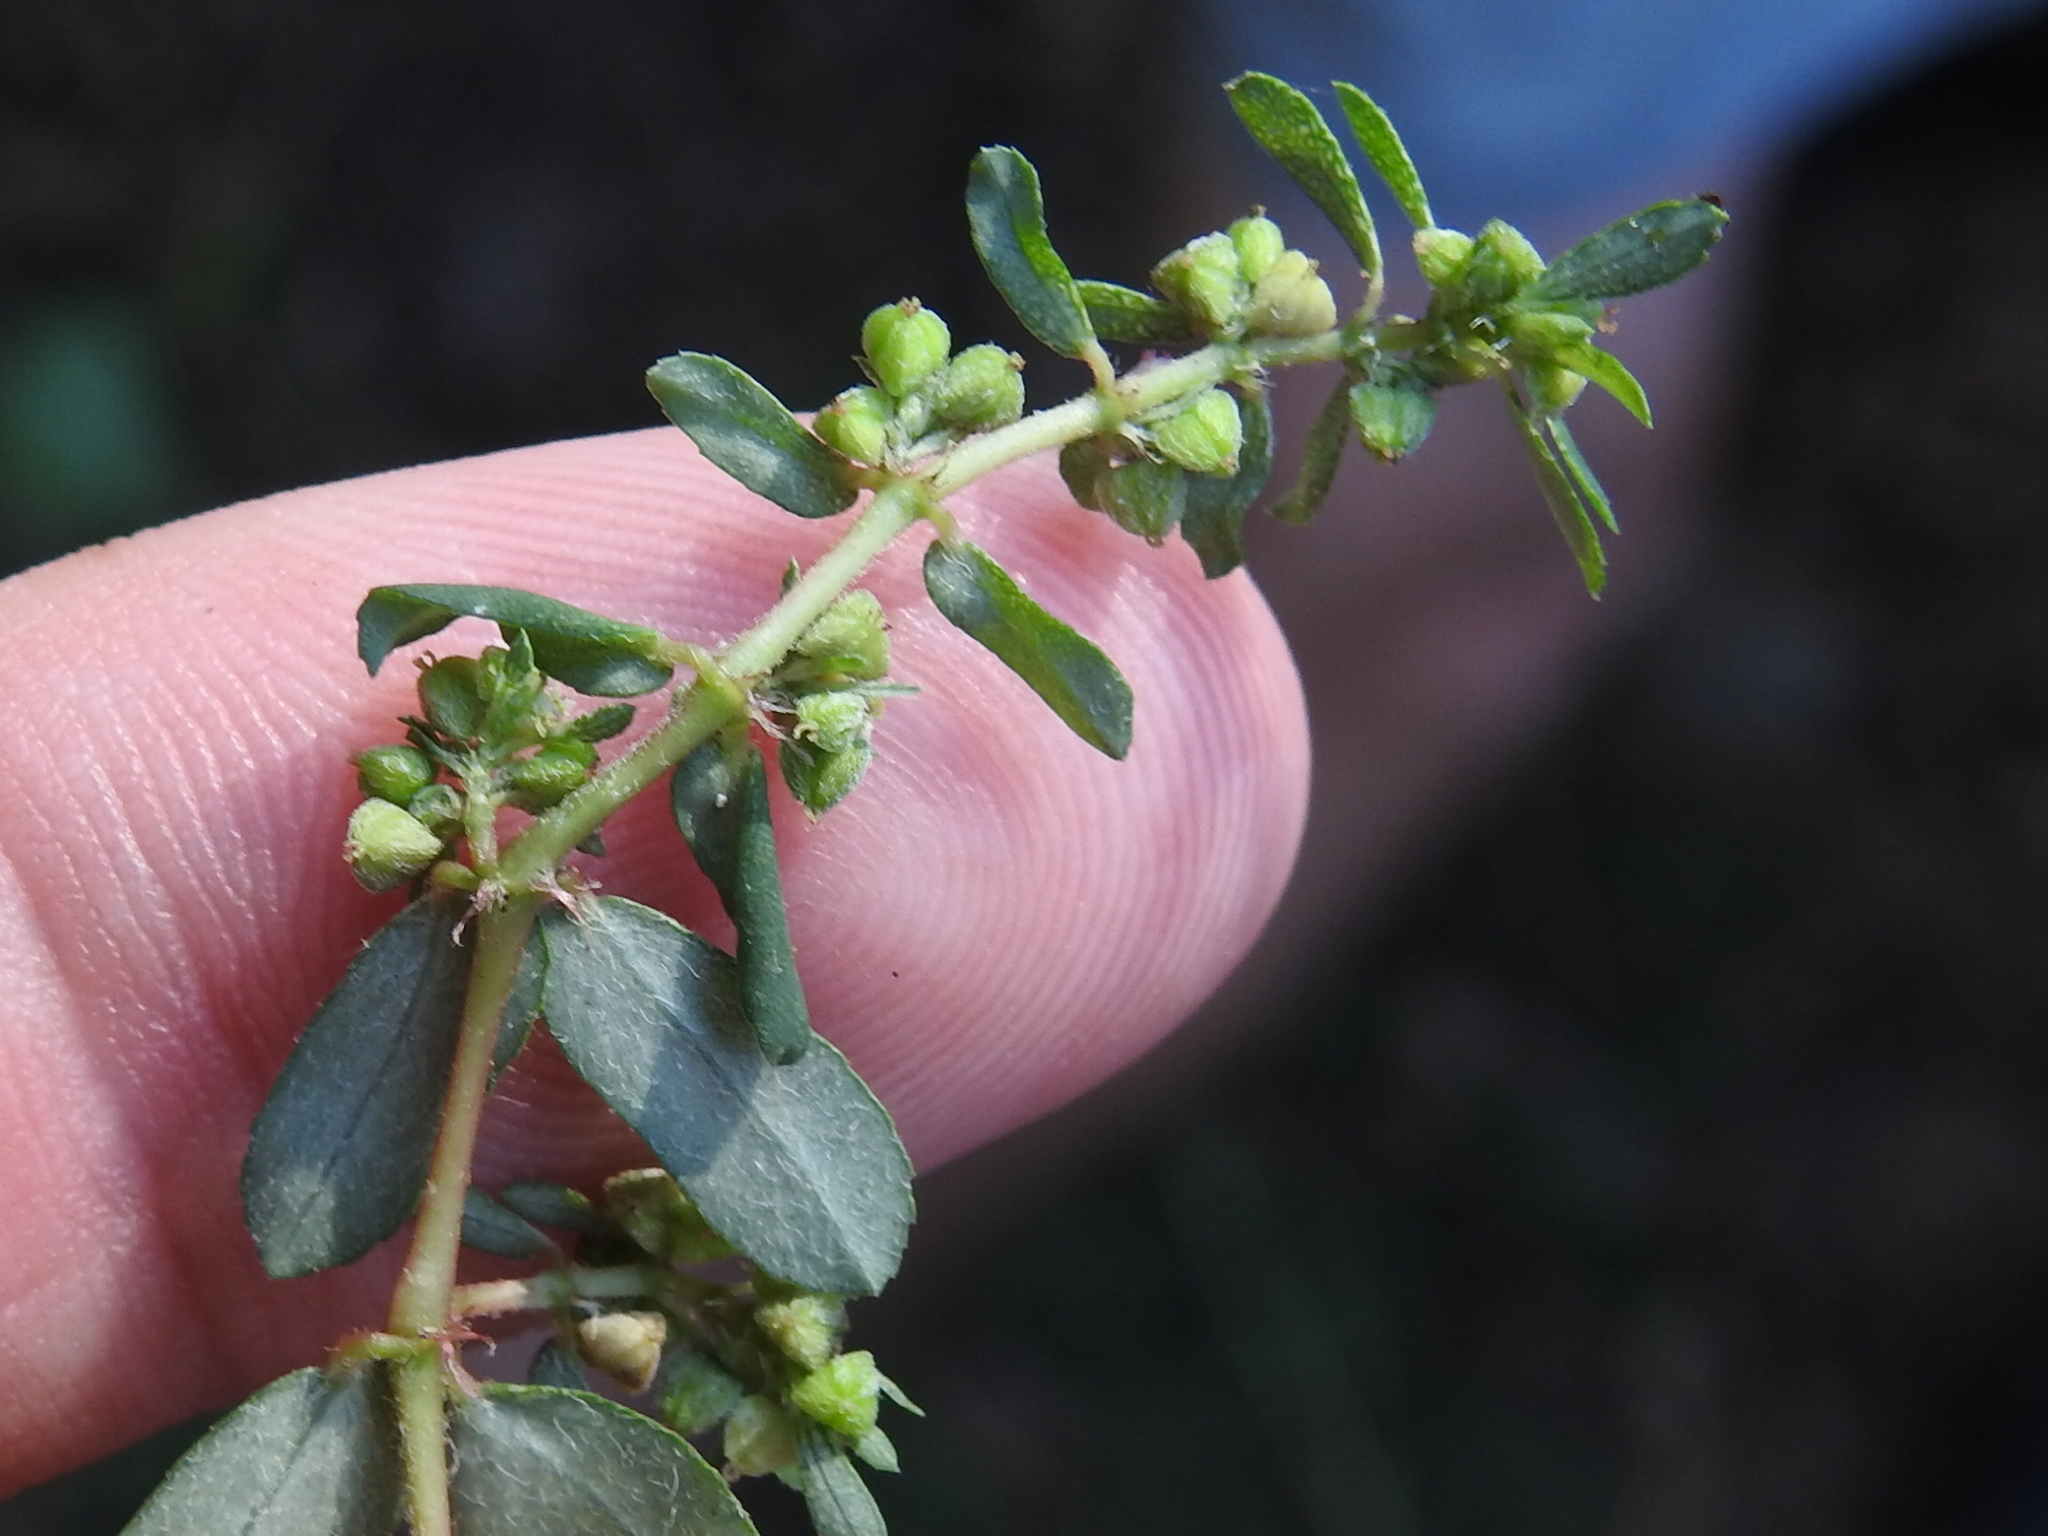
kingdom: Plantae
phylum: Tracheophyta
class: Magnoliopsida
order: Malpighiales
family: Euphorbiaceae
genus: Euphorbia
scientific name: Euphorbia maculata
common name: Spotted spurge
